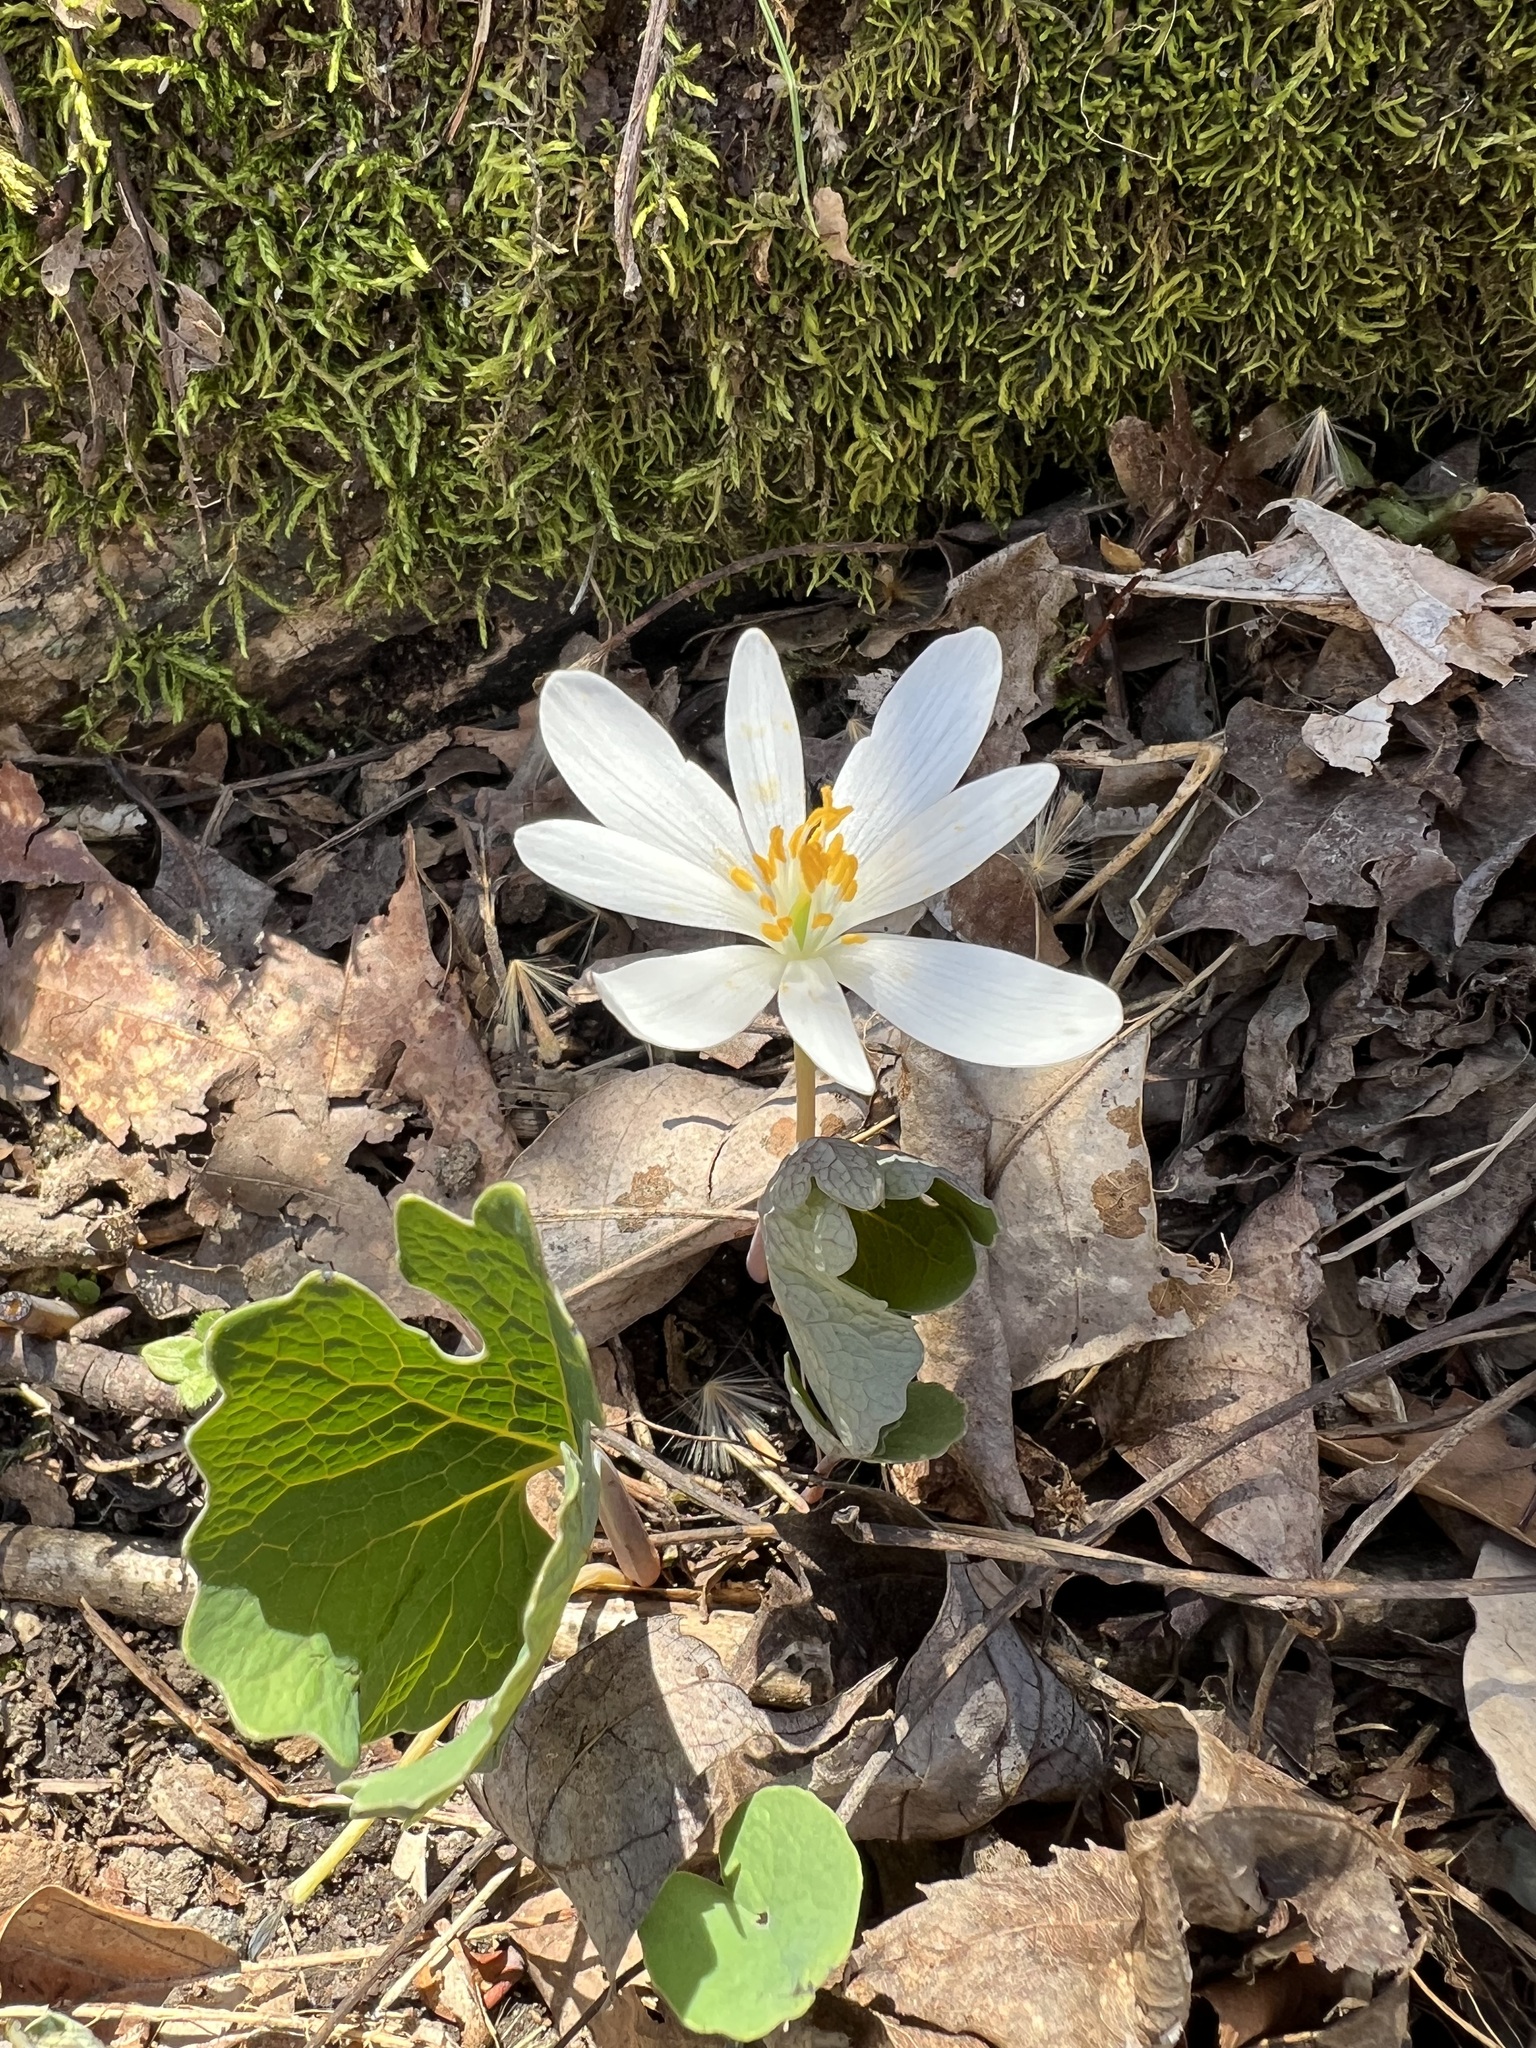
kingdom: Plantae
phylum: Tracheophyta
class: Magnoliopsida
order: Ranunculales
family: Papaveraceae
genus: Sanguinaria
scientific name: Sanguinaria canadensis
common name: Bloodroot
